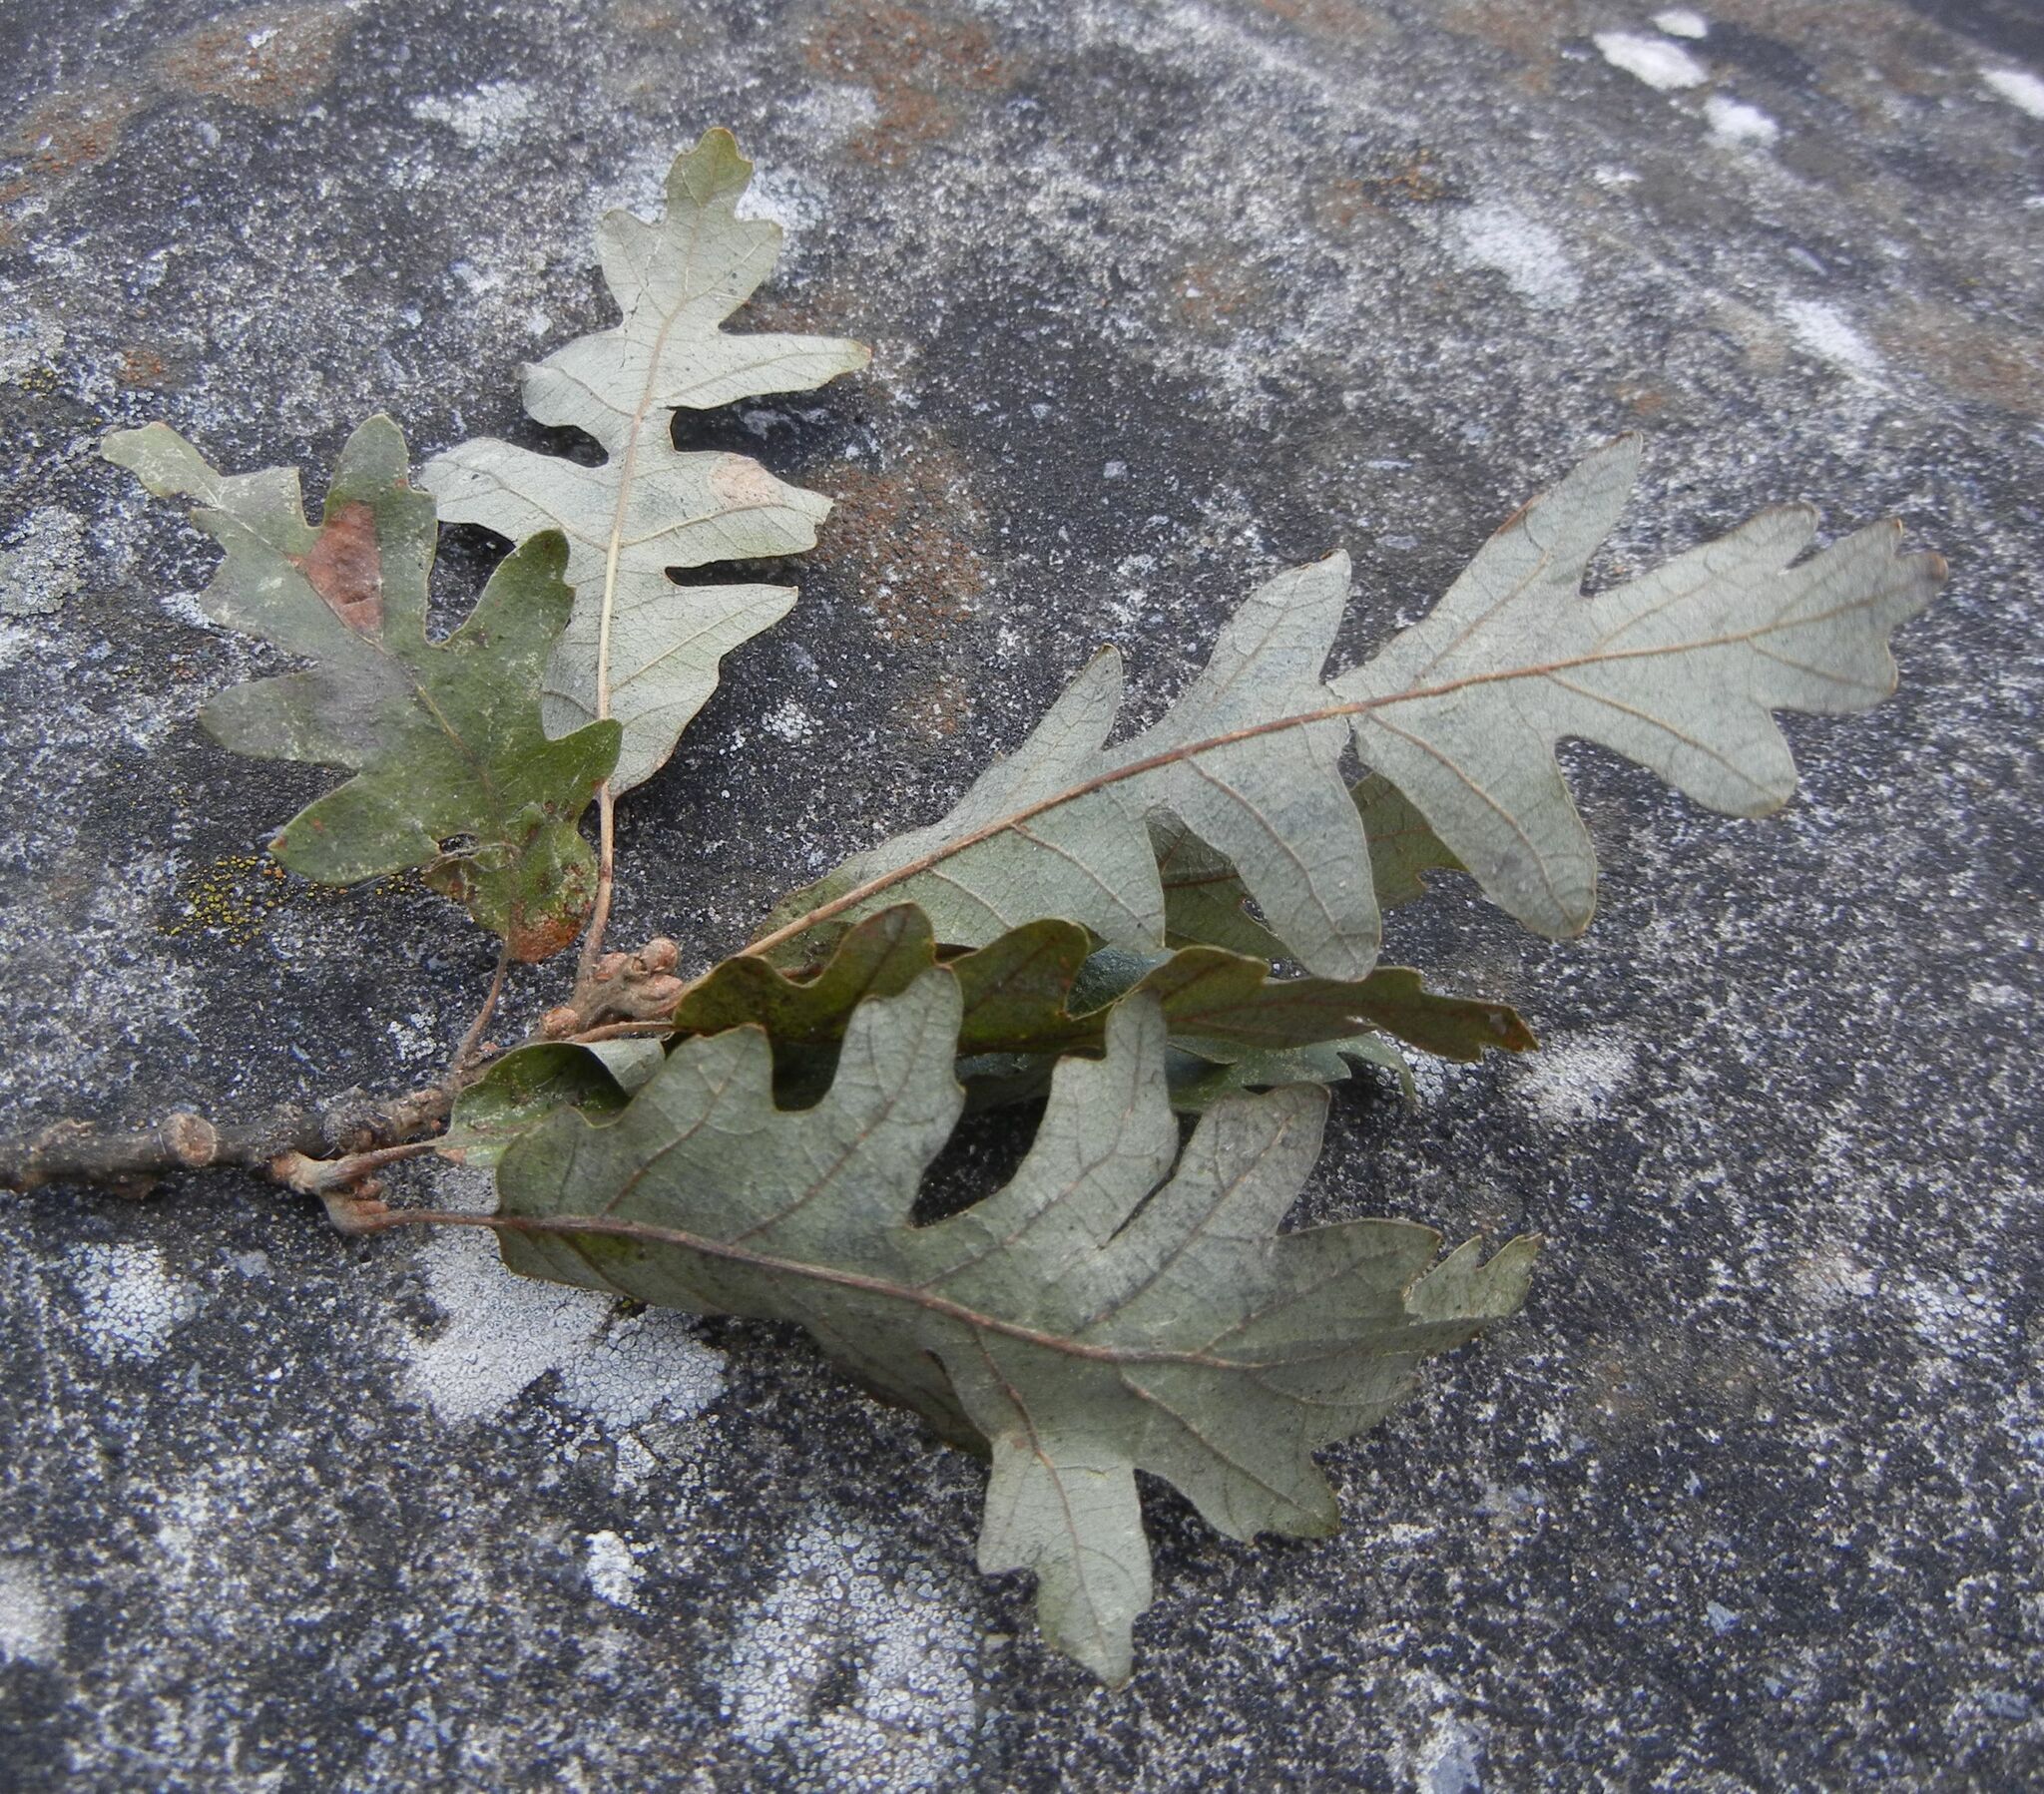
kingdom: Plantae
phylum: Tracheophyta
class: Magnoliopsida
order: Fagales
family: Fagaceae
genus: Quercus
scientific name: Quercus cerris
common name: Turkey oak
